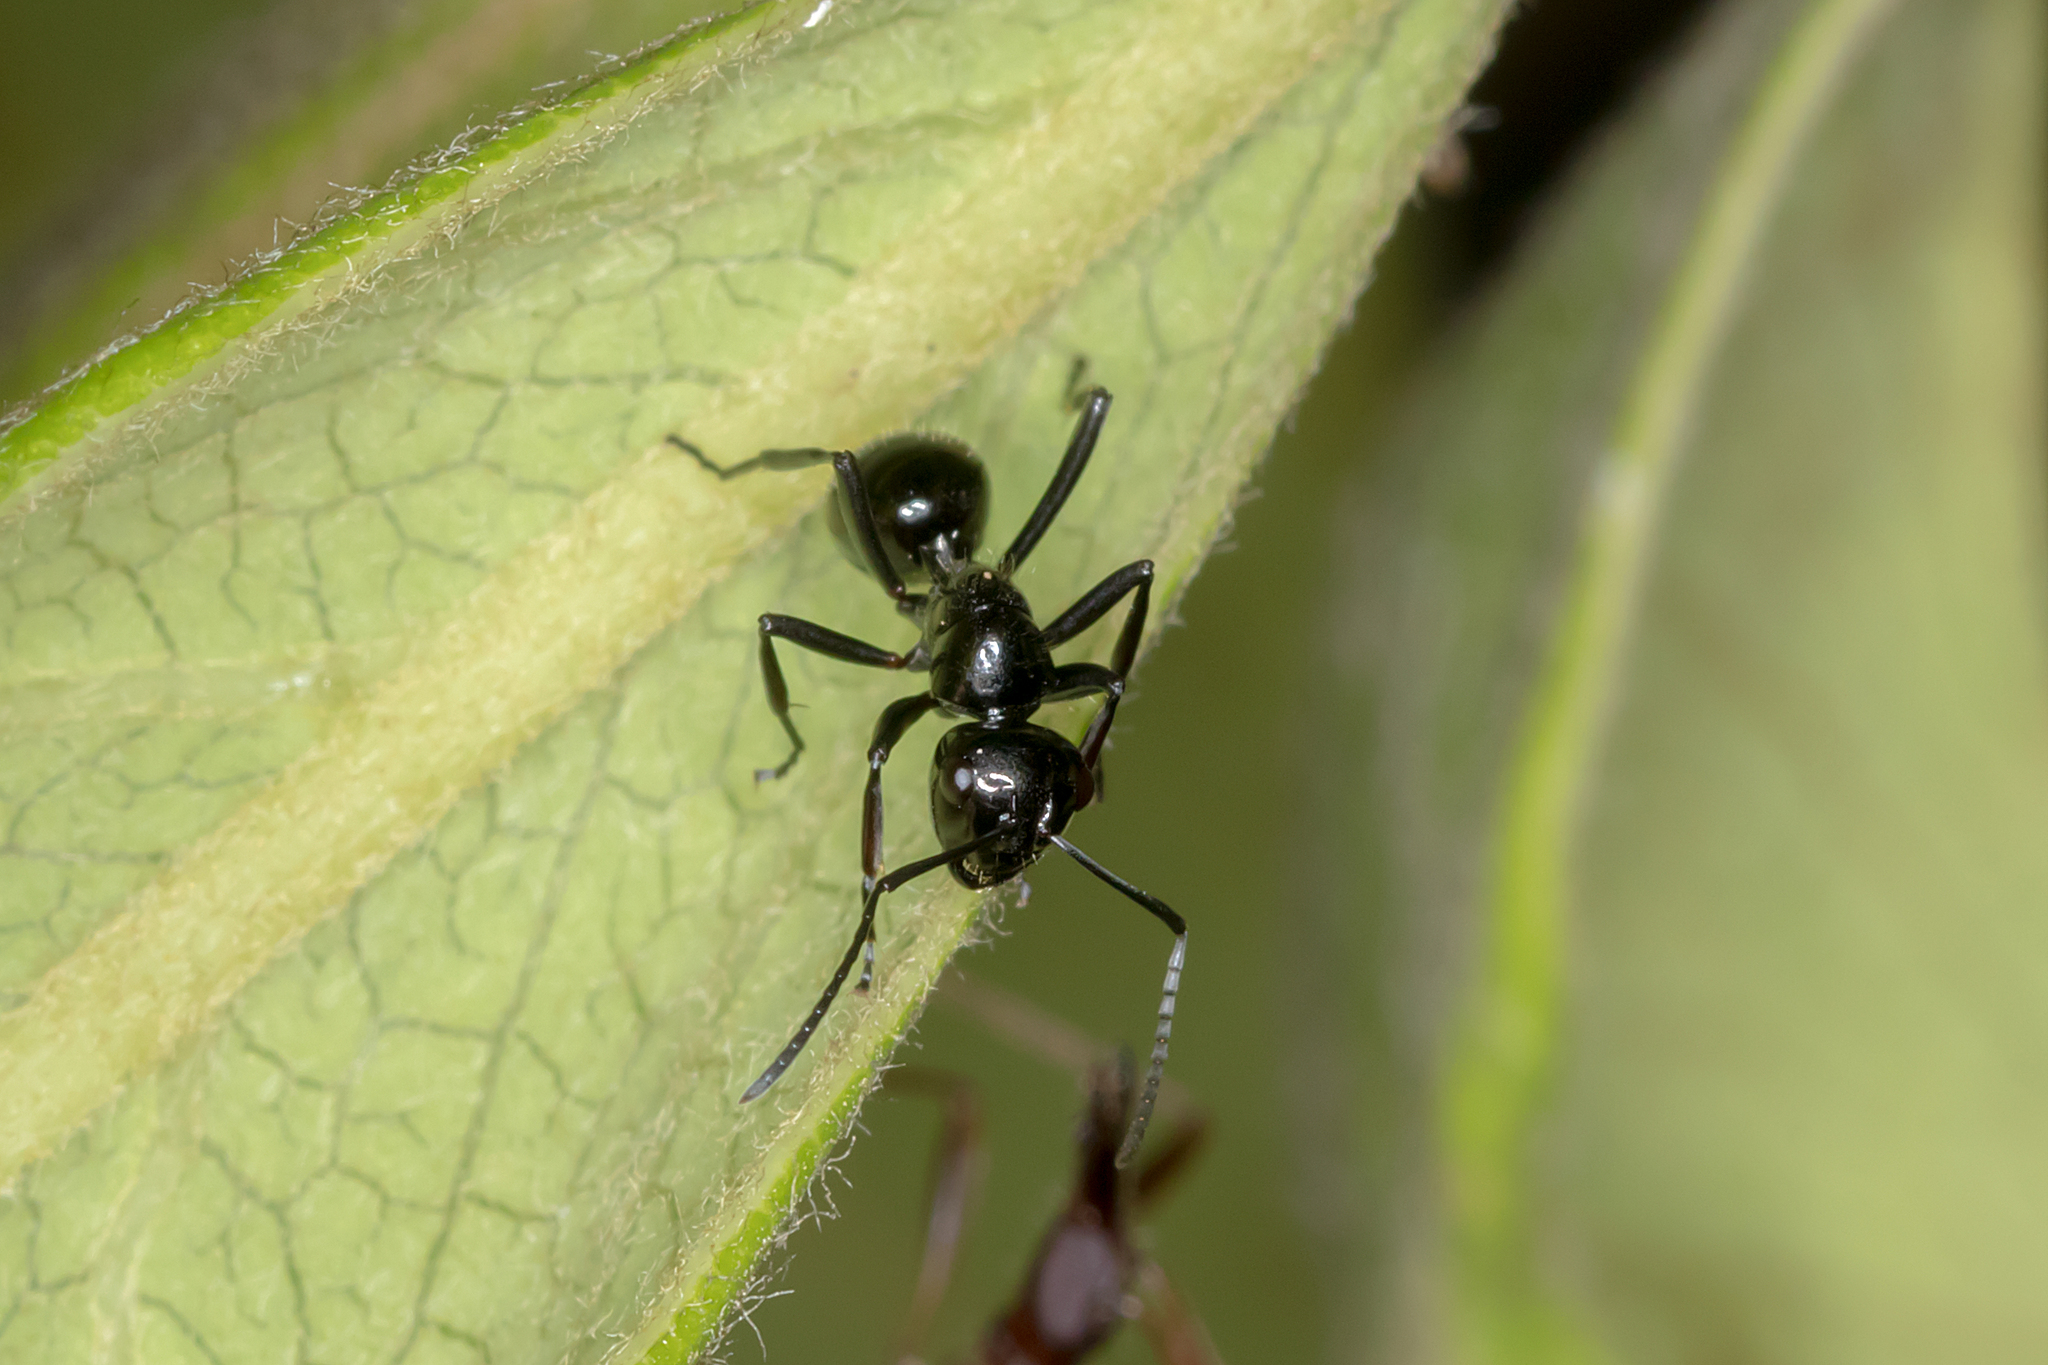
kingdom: Animalia
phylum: Arthropoda
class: Insecta
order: Hymenoptera
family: Formicidae
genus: Polyrhachis
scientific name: Polyrhachis pilosa
